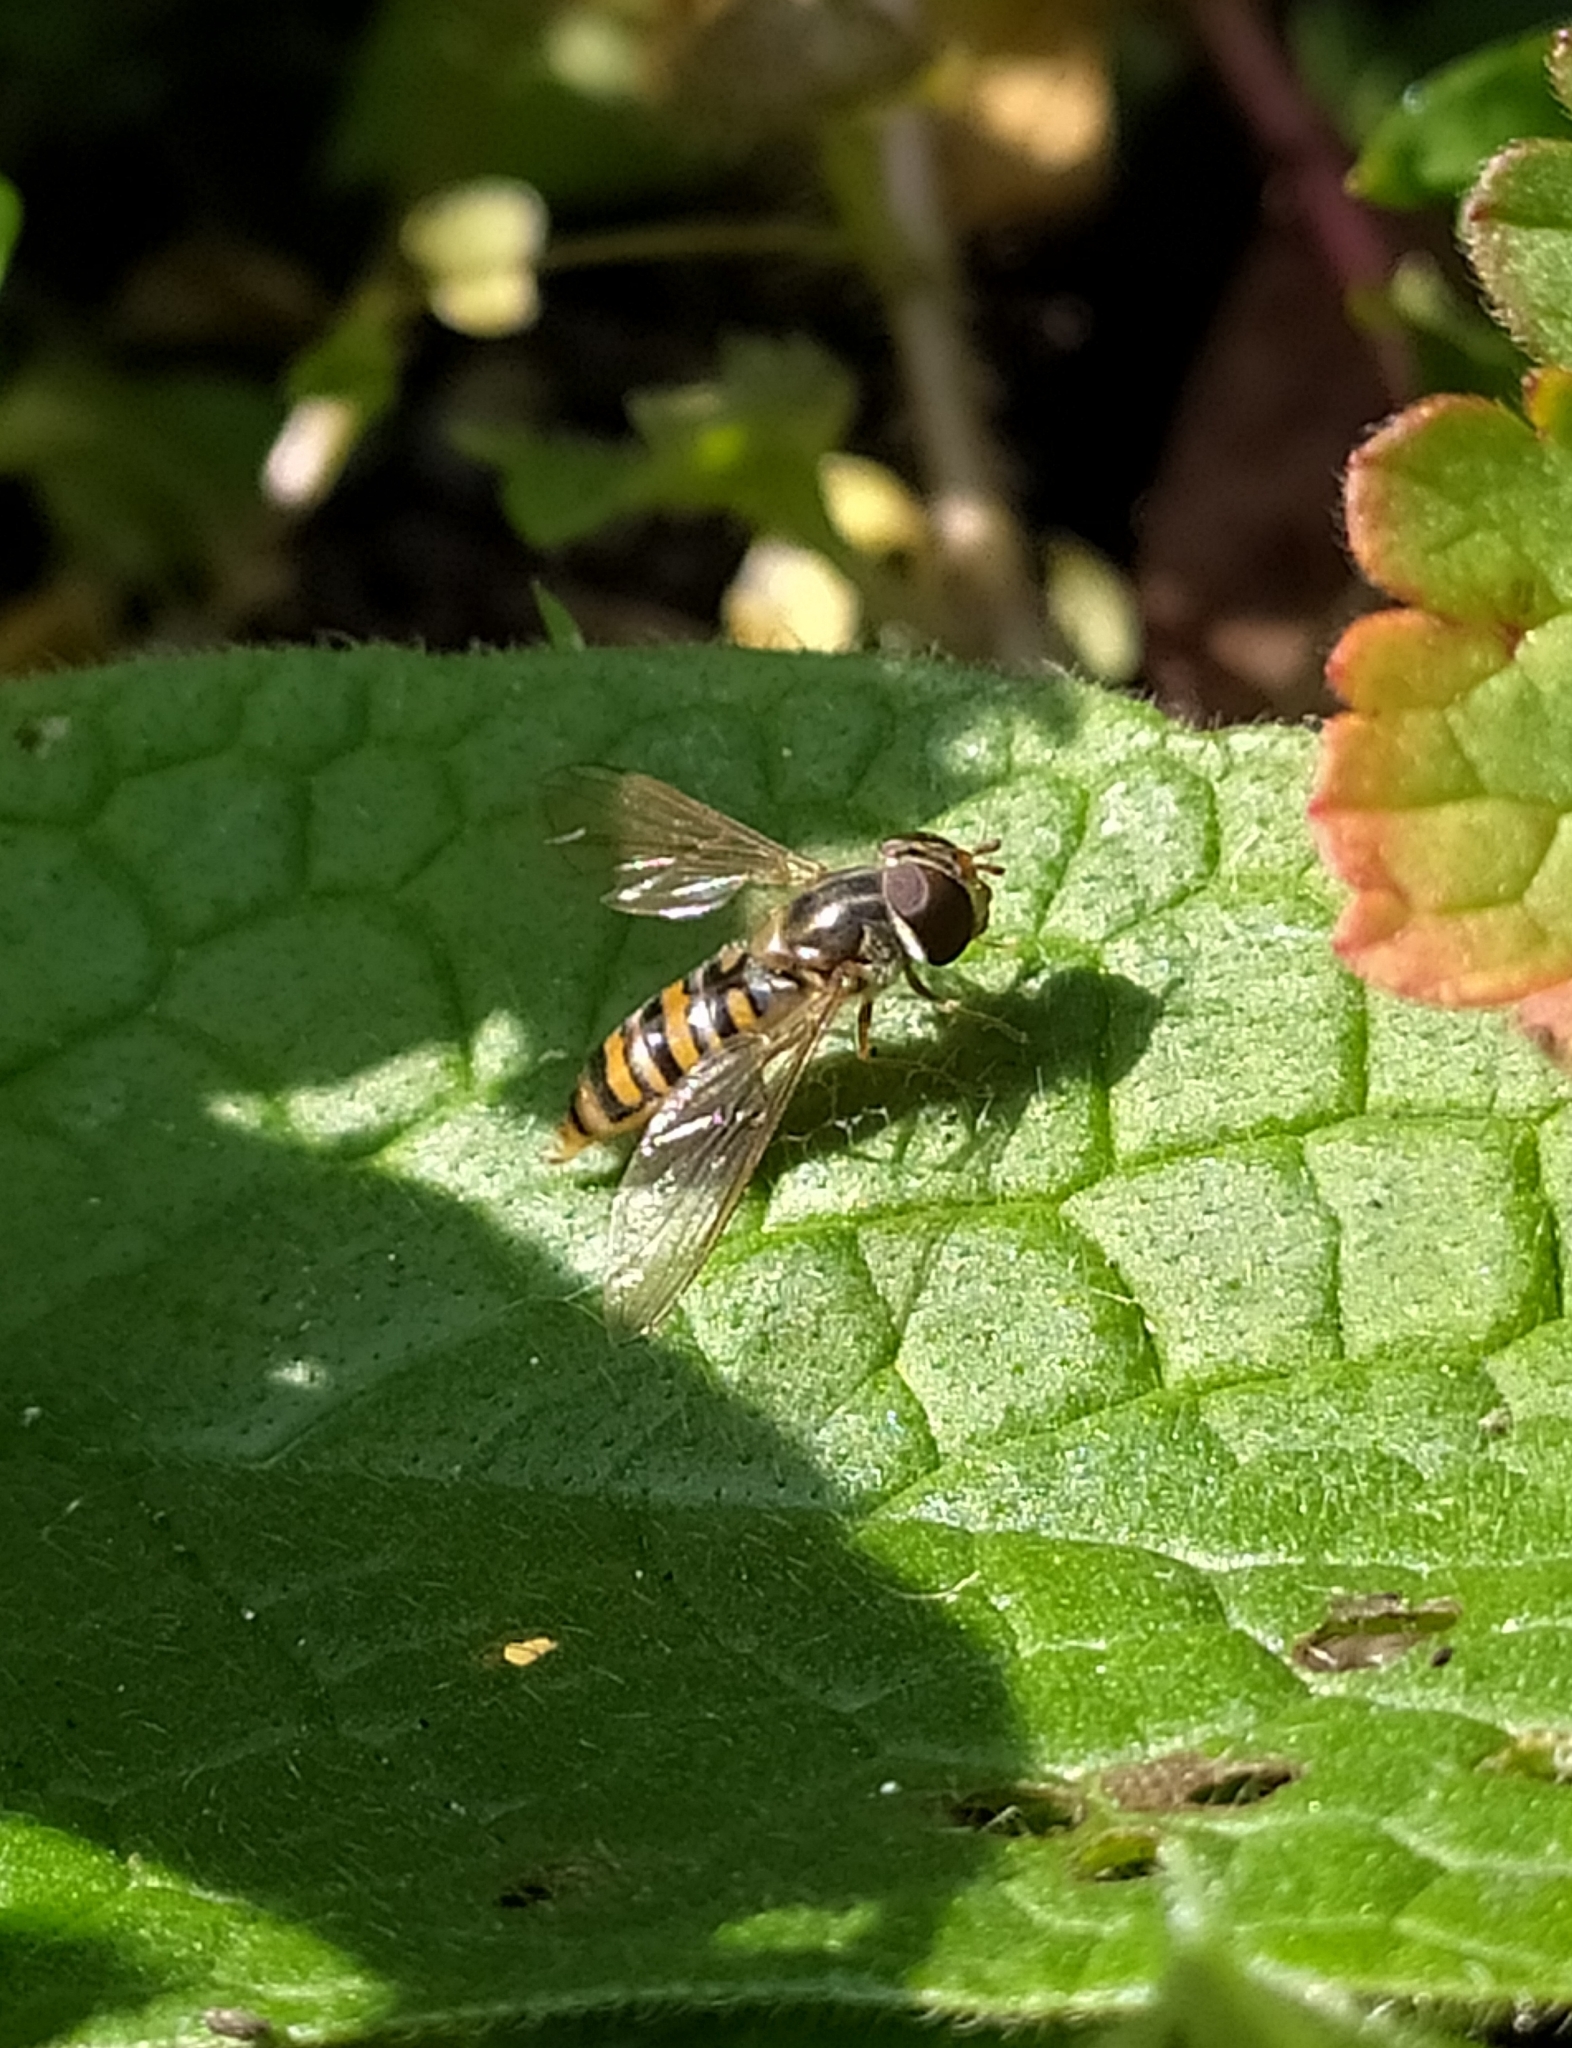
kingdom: Animalia
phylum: Arthropoda
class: Insecta
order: Diptera
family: Syrphidae
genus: Episyrphus
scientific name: Episyrphus balteatus
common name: Marmalade hoverfly
